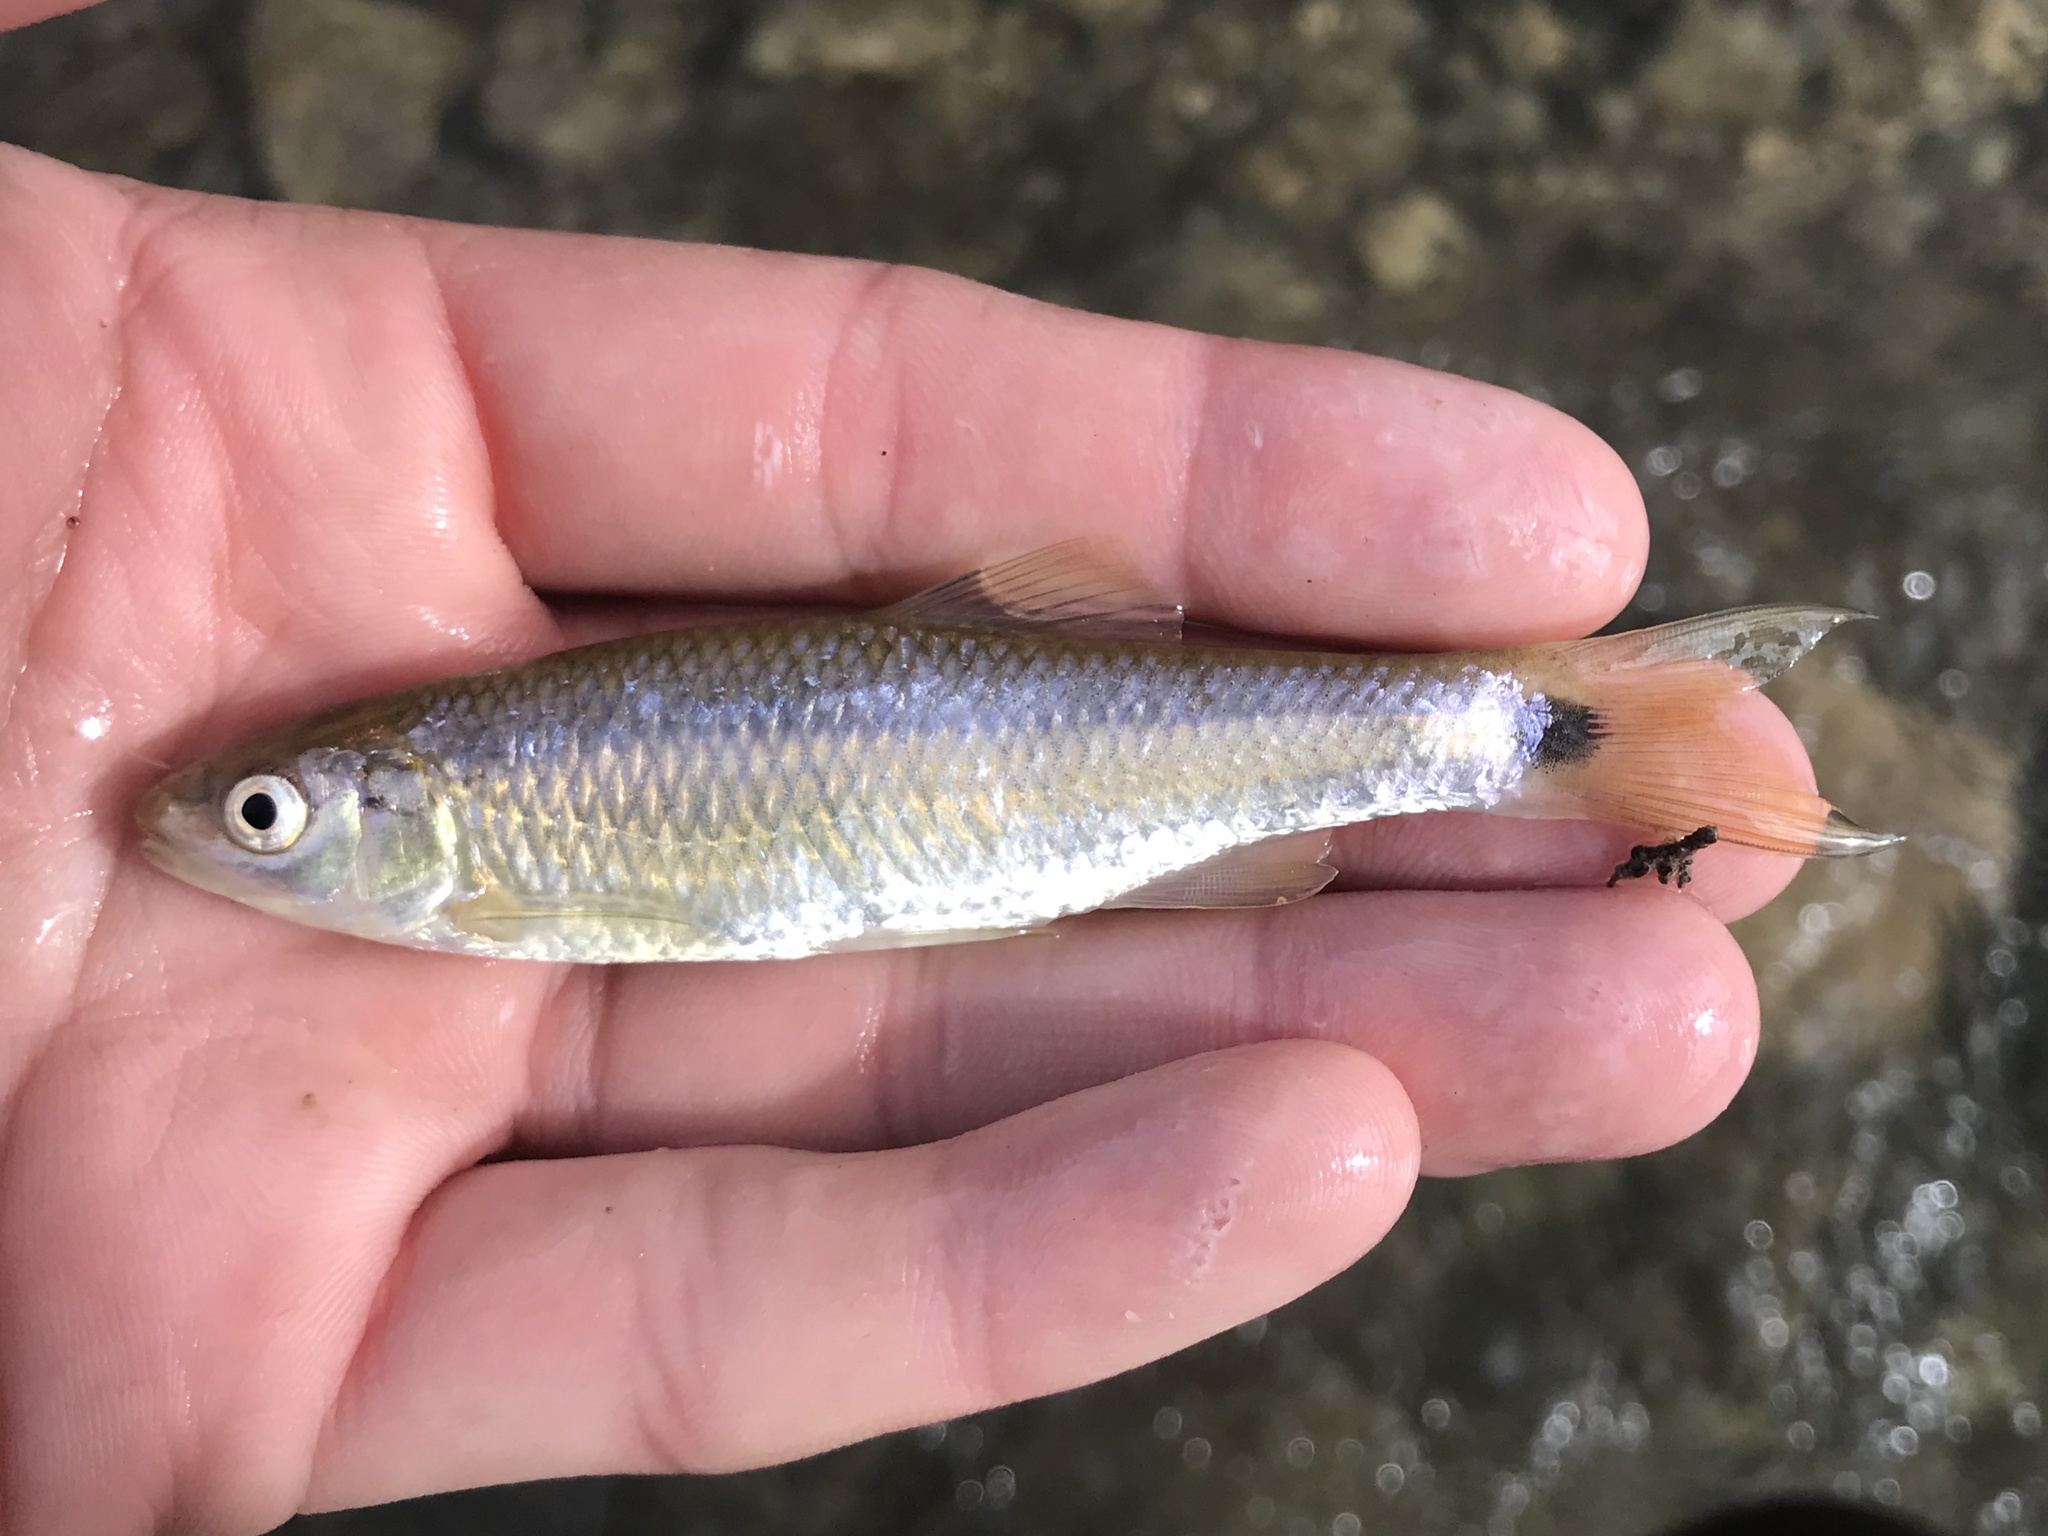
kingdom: Animalia
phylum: Chordata
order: Cypriniformes
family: Cyprinidae
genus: Cyprinella
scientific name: Cyprinella venusta
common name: Blacktail shiner
